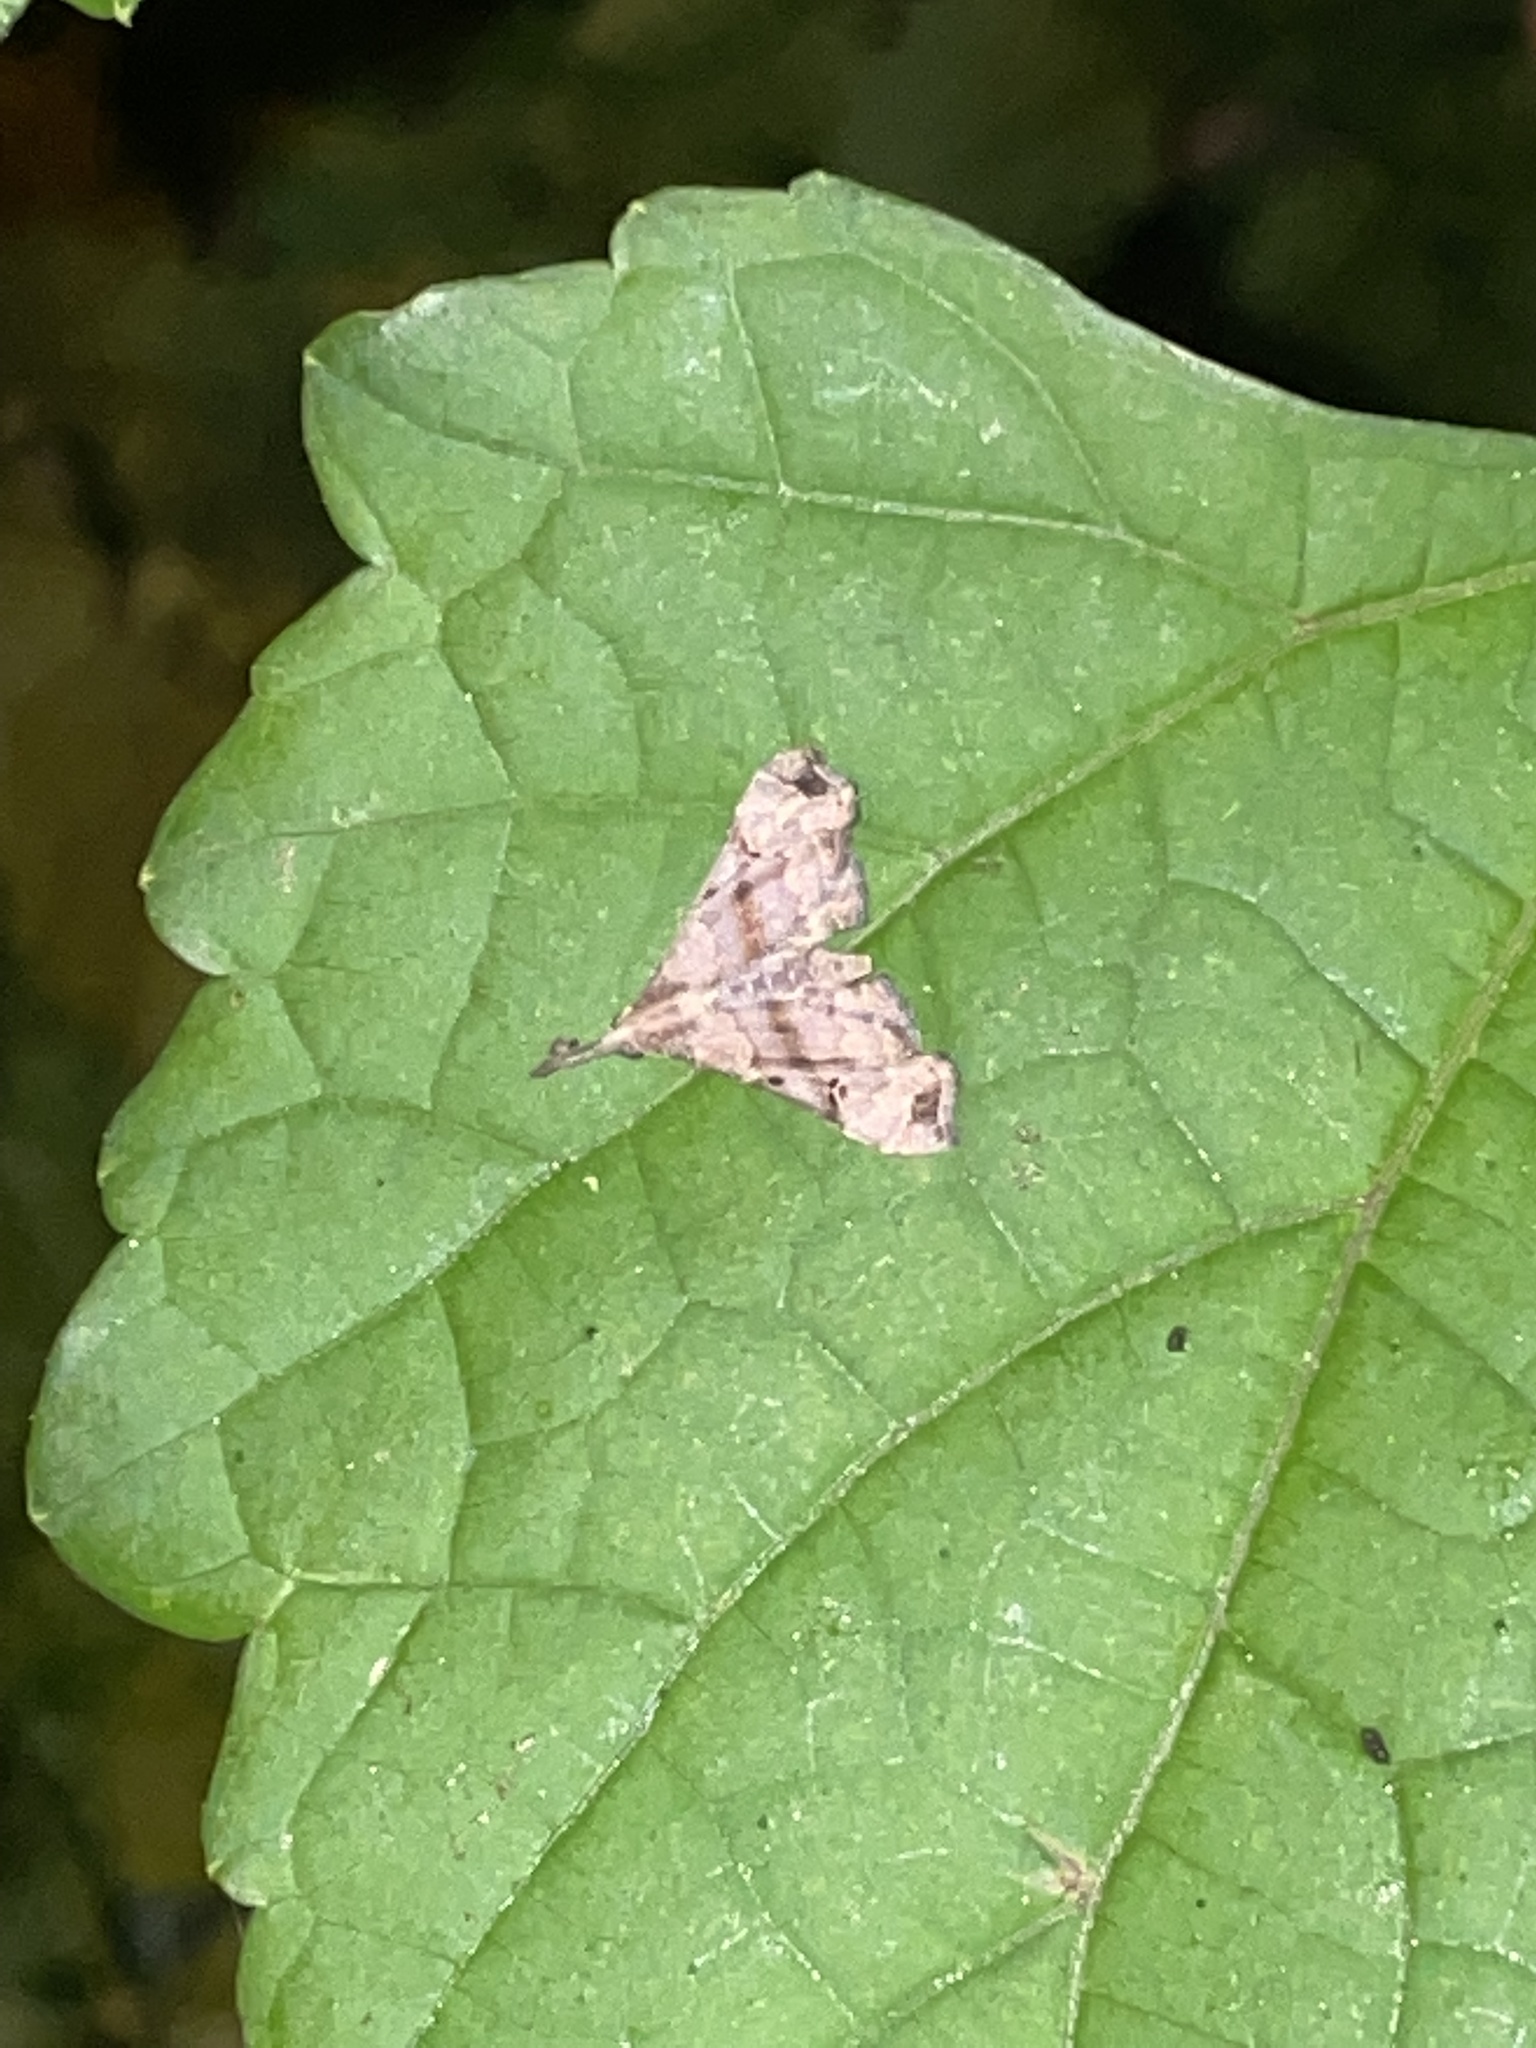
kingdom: Animalia
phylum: Arthropoda
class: Insecta
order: Lepidoptera
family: Erebidae
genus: Palthis
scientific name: Palthis asopialis
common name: Faint-spotted palthis moth
